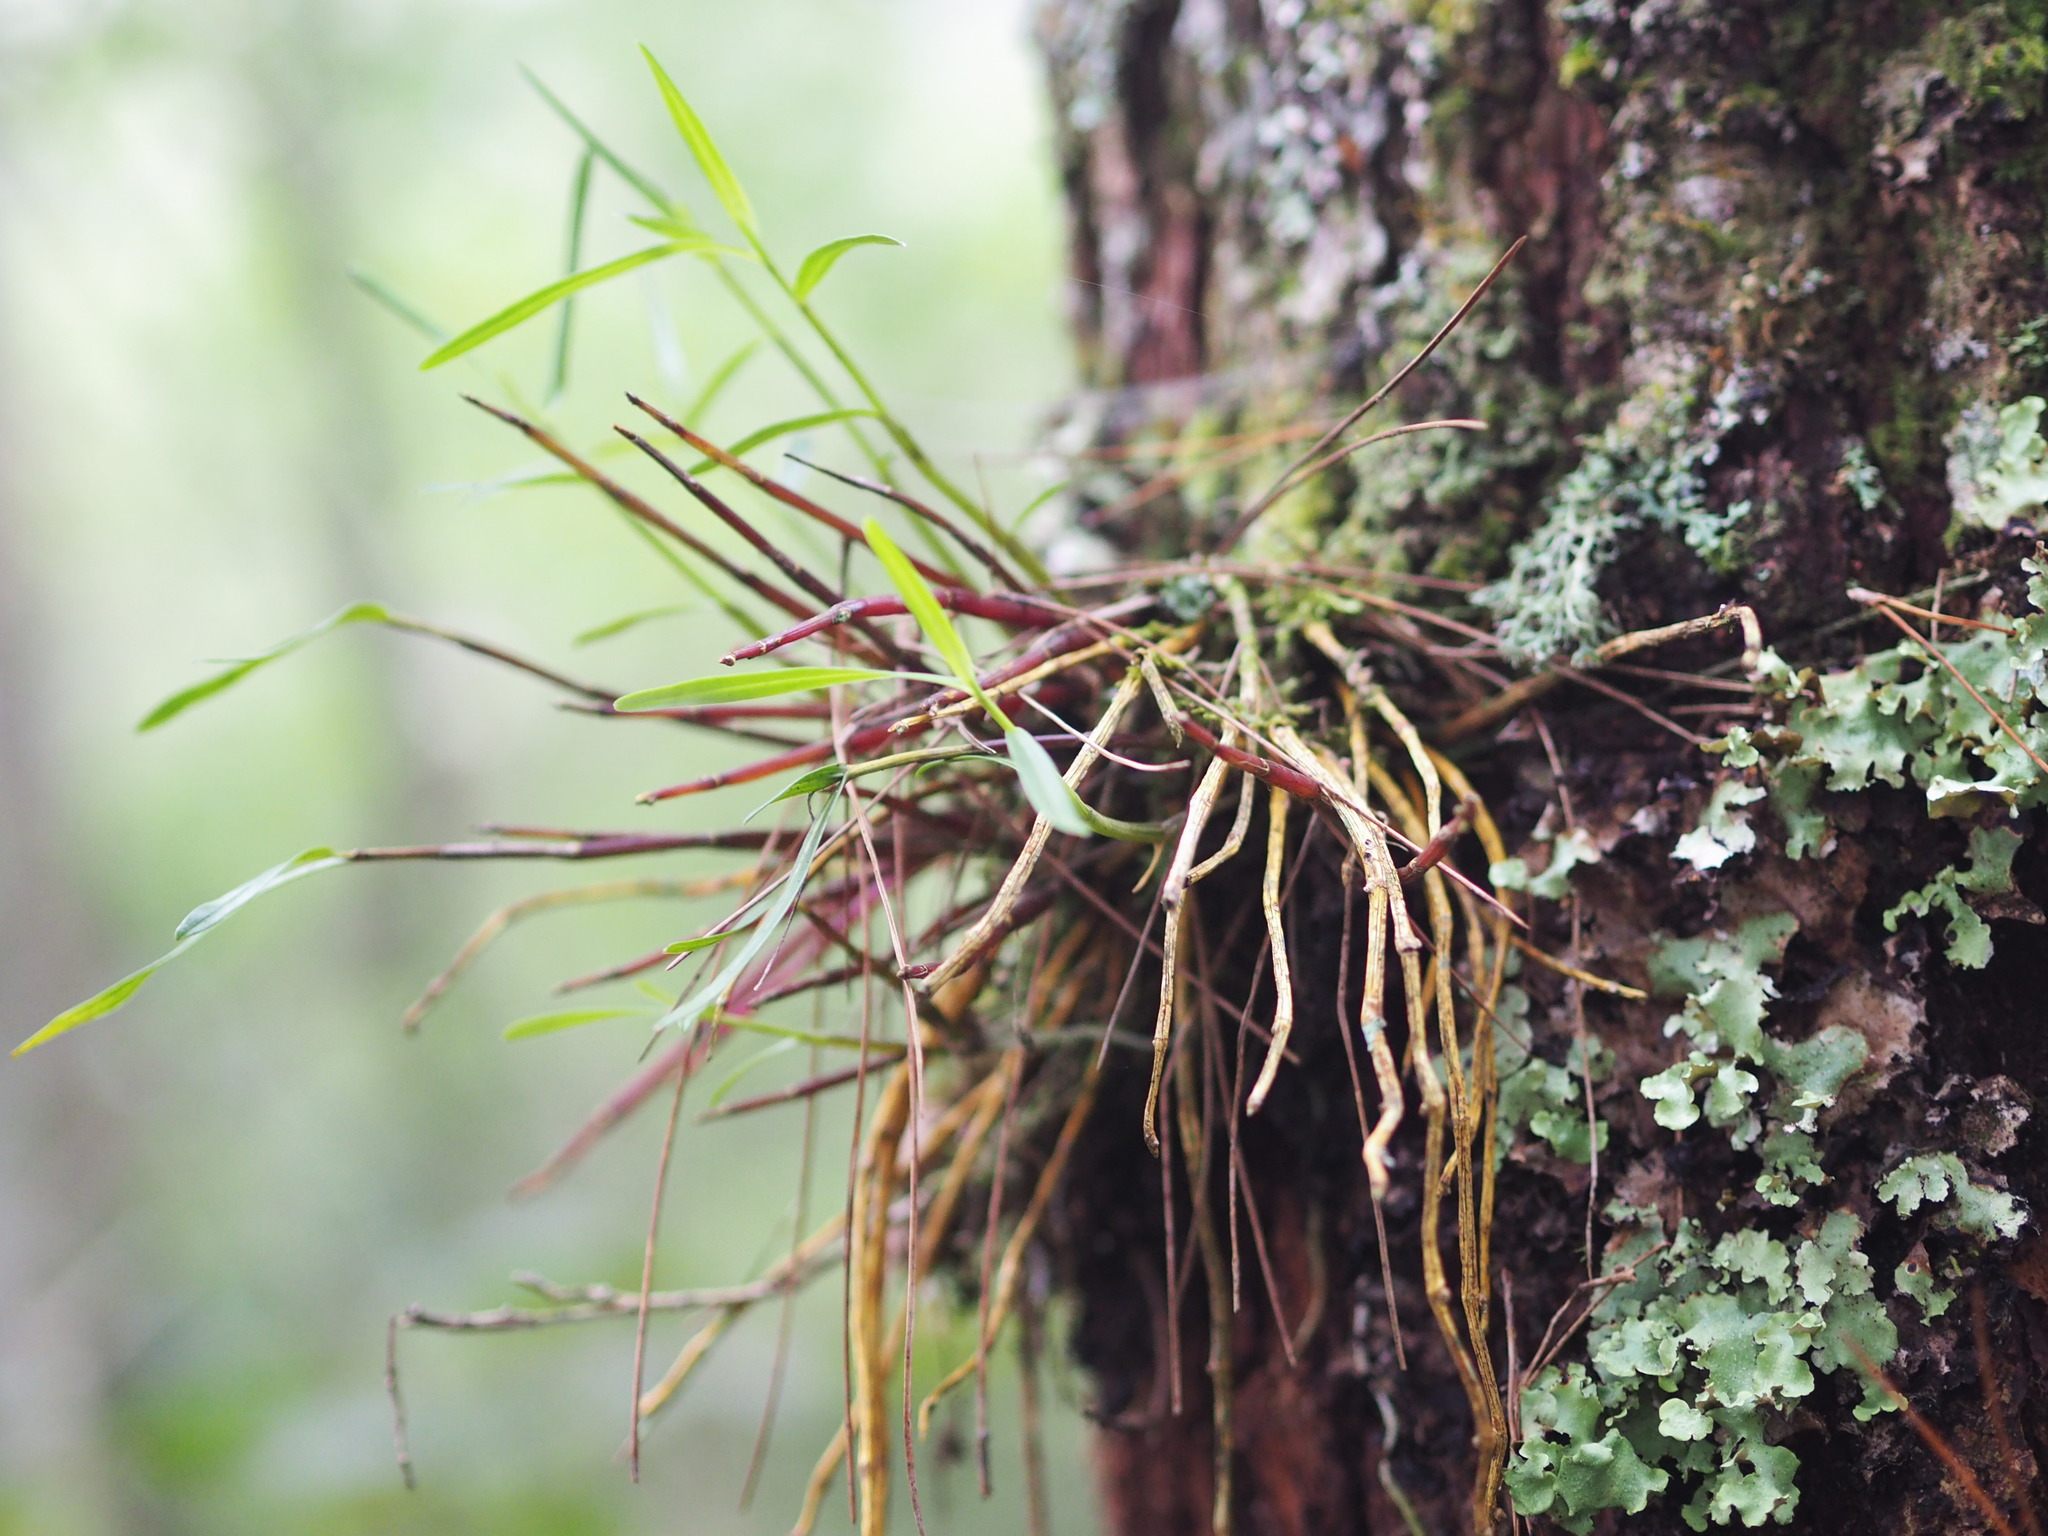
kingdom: Plantae
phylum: Tracheophyta
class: Liliopsida
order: Asparagales
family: Orchidaceae
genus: Dendrobium
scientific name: Dendrobium moniliforme
